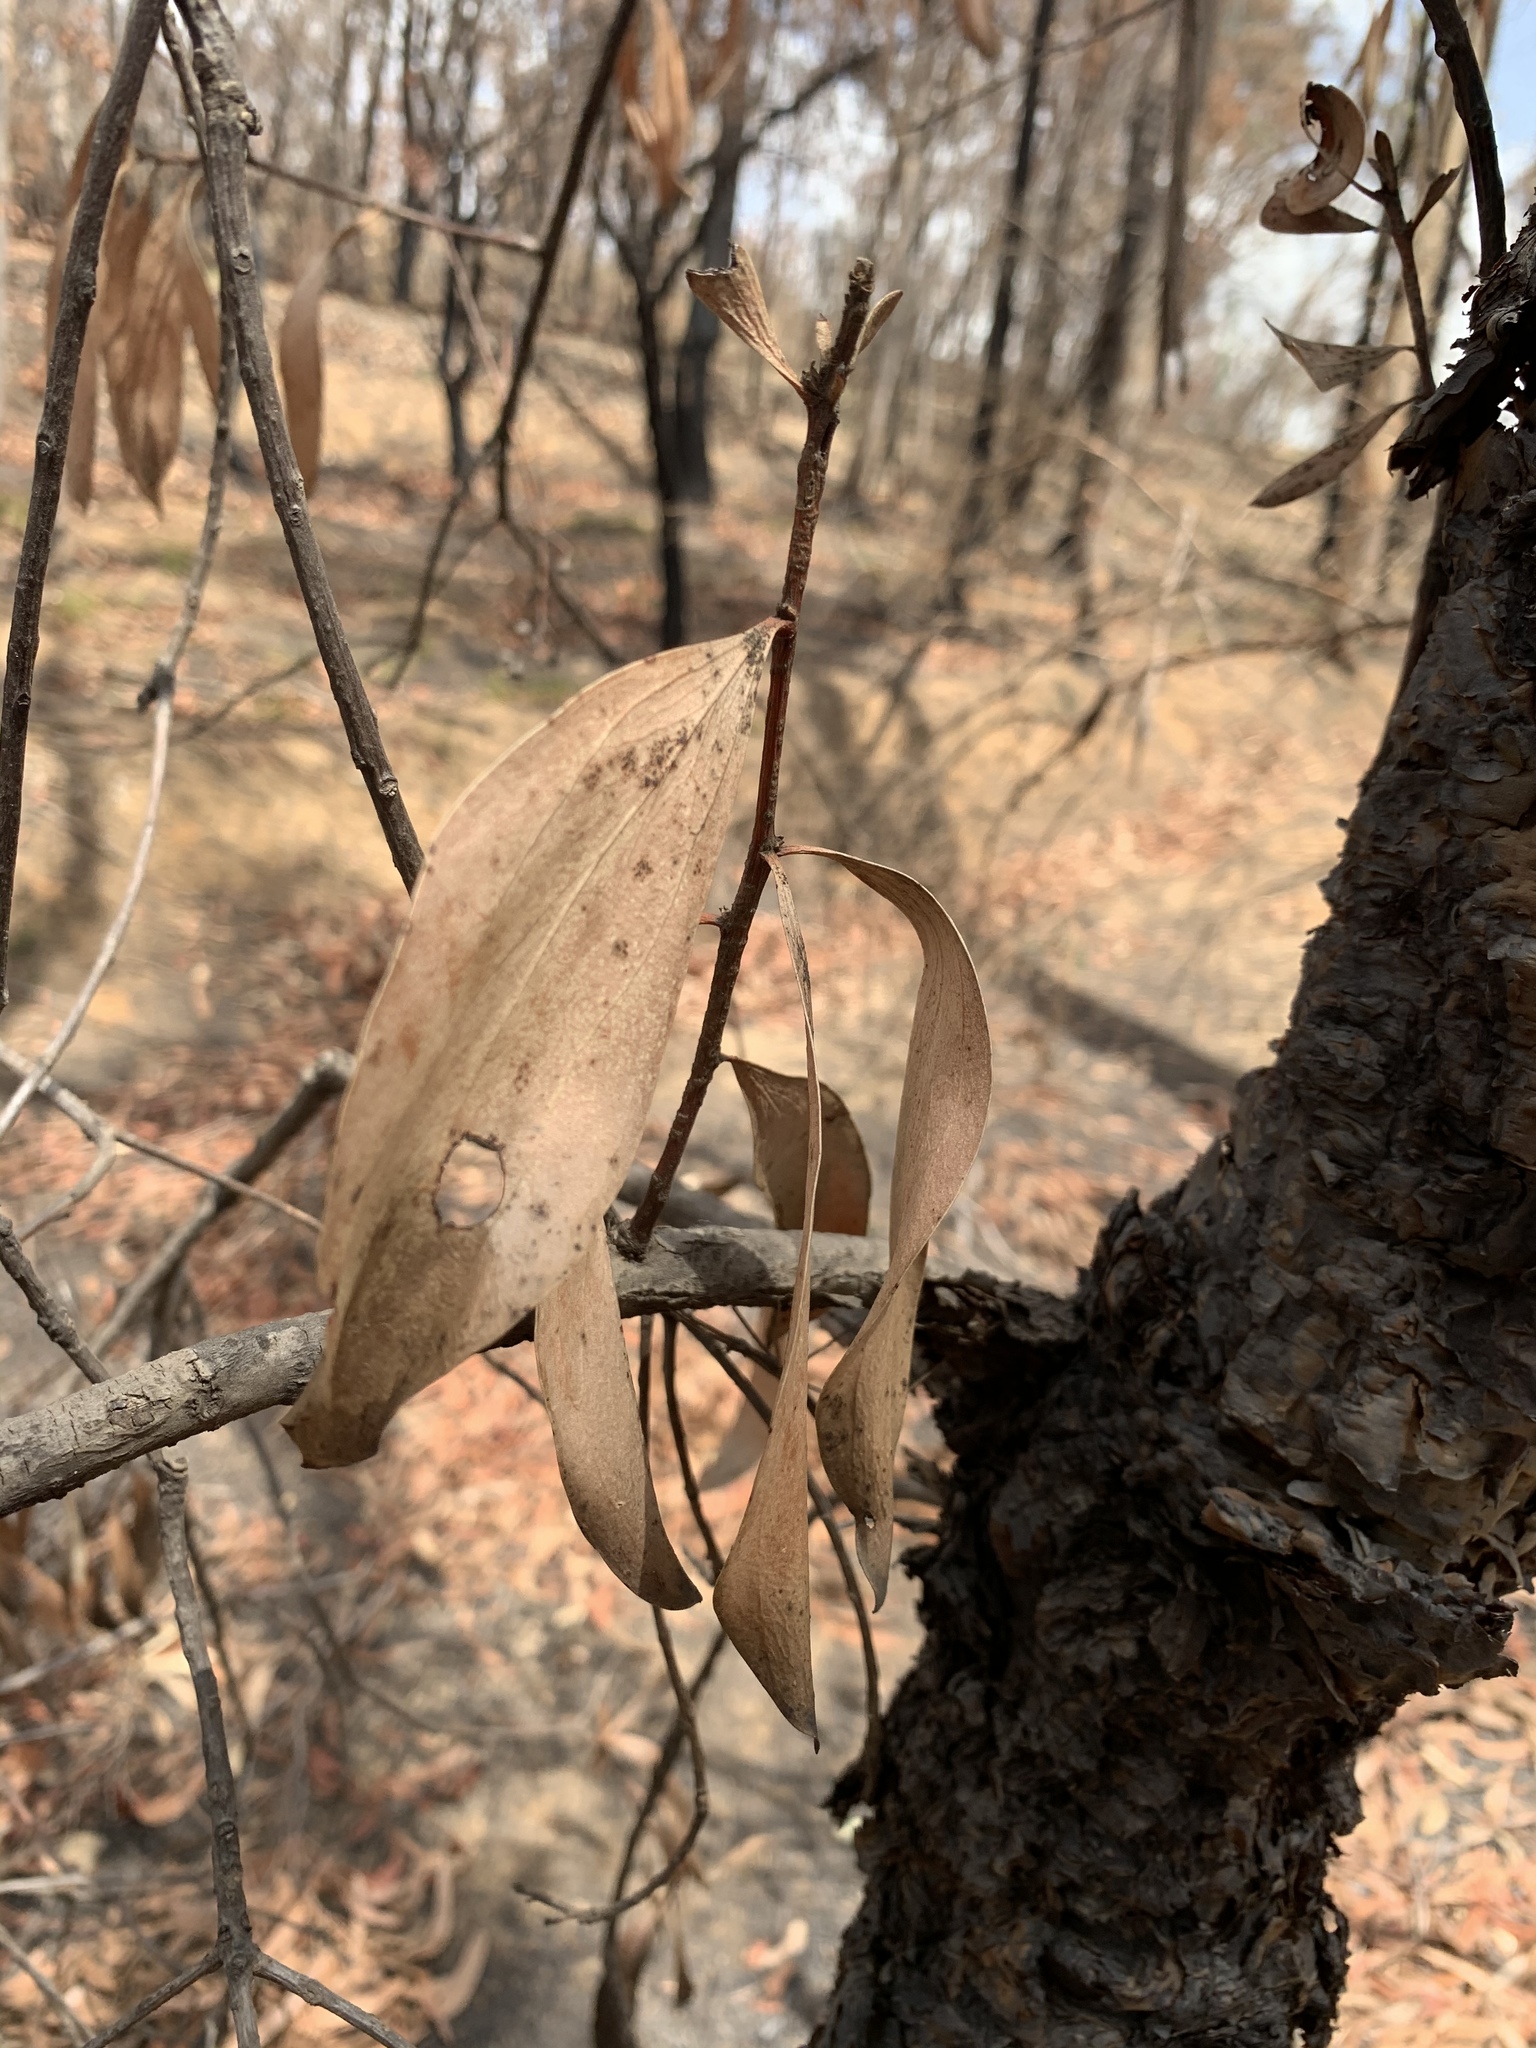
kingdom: Plantae
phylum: Tracheophyta
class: Magnoliopsida
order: Proteales
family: Proteaceae
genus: Persoonia
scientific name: Persoonia levis
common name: Smooth geebung
